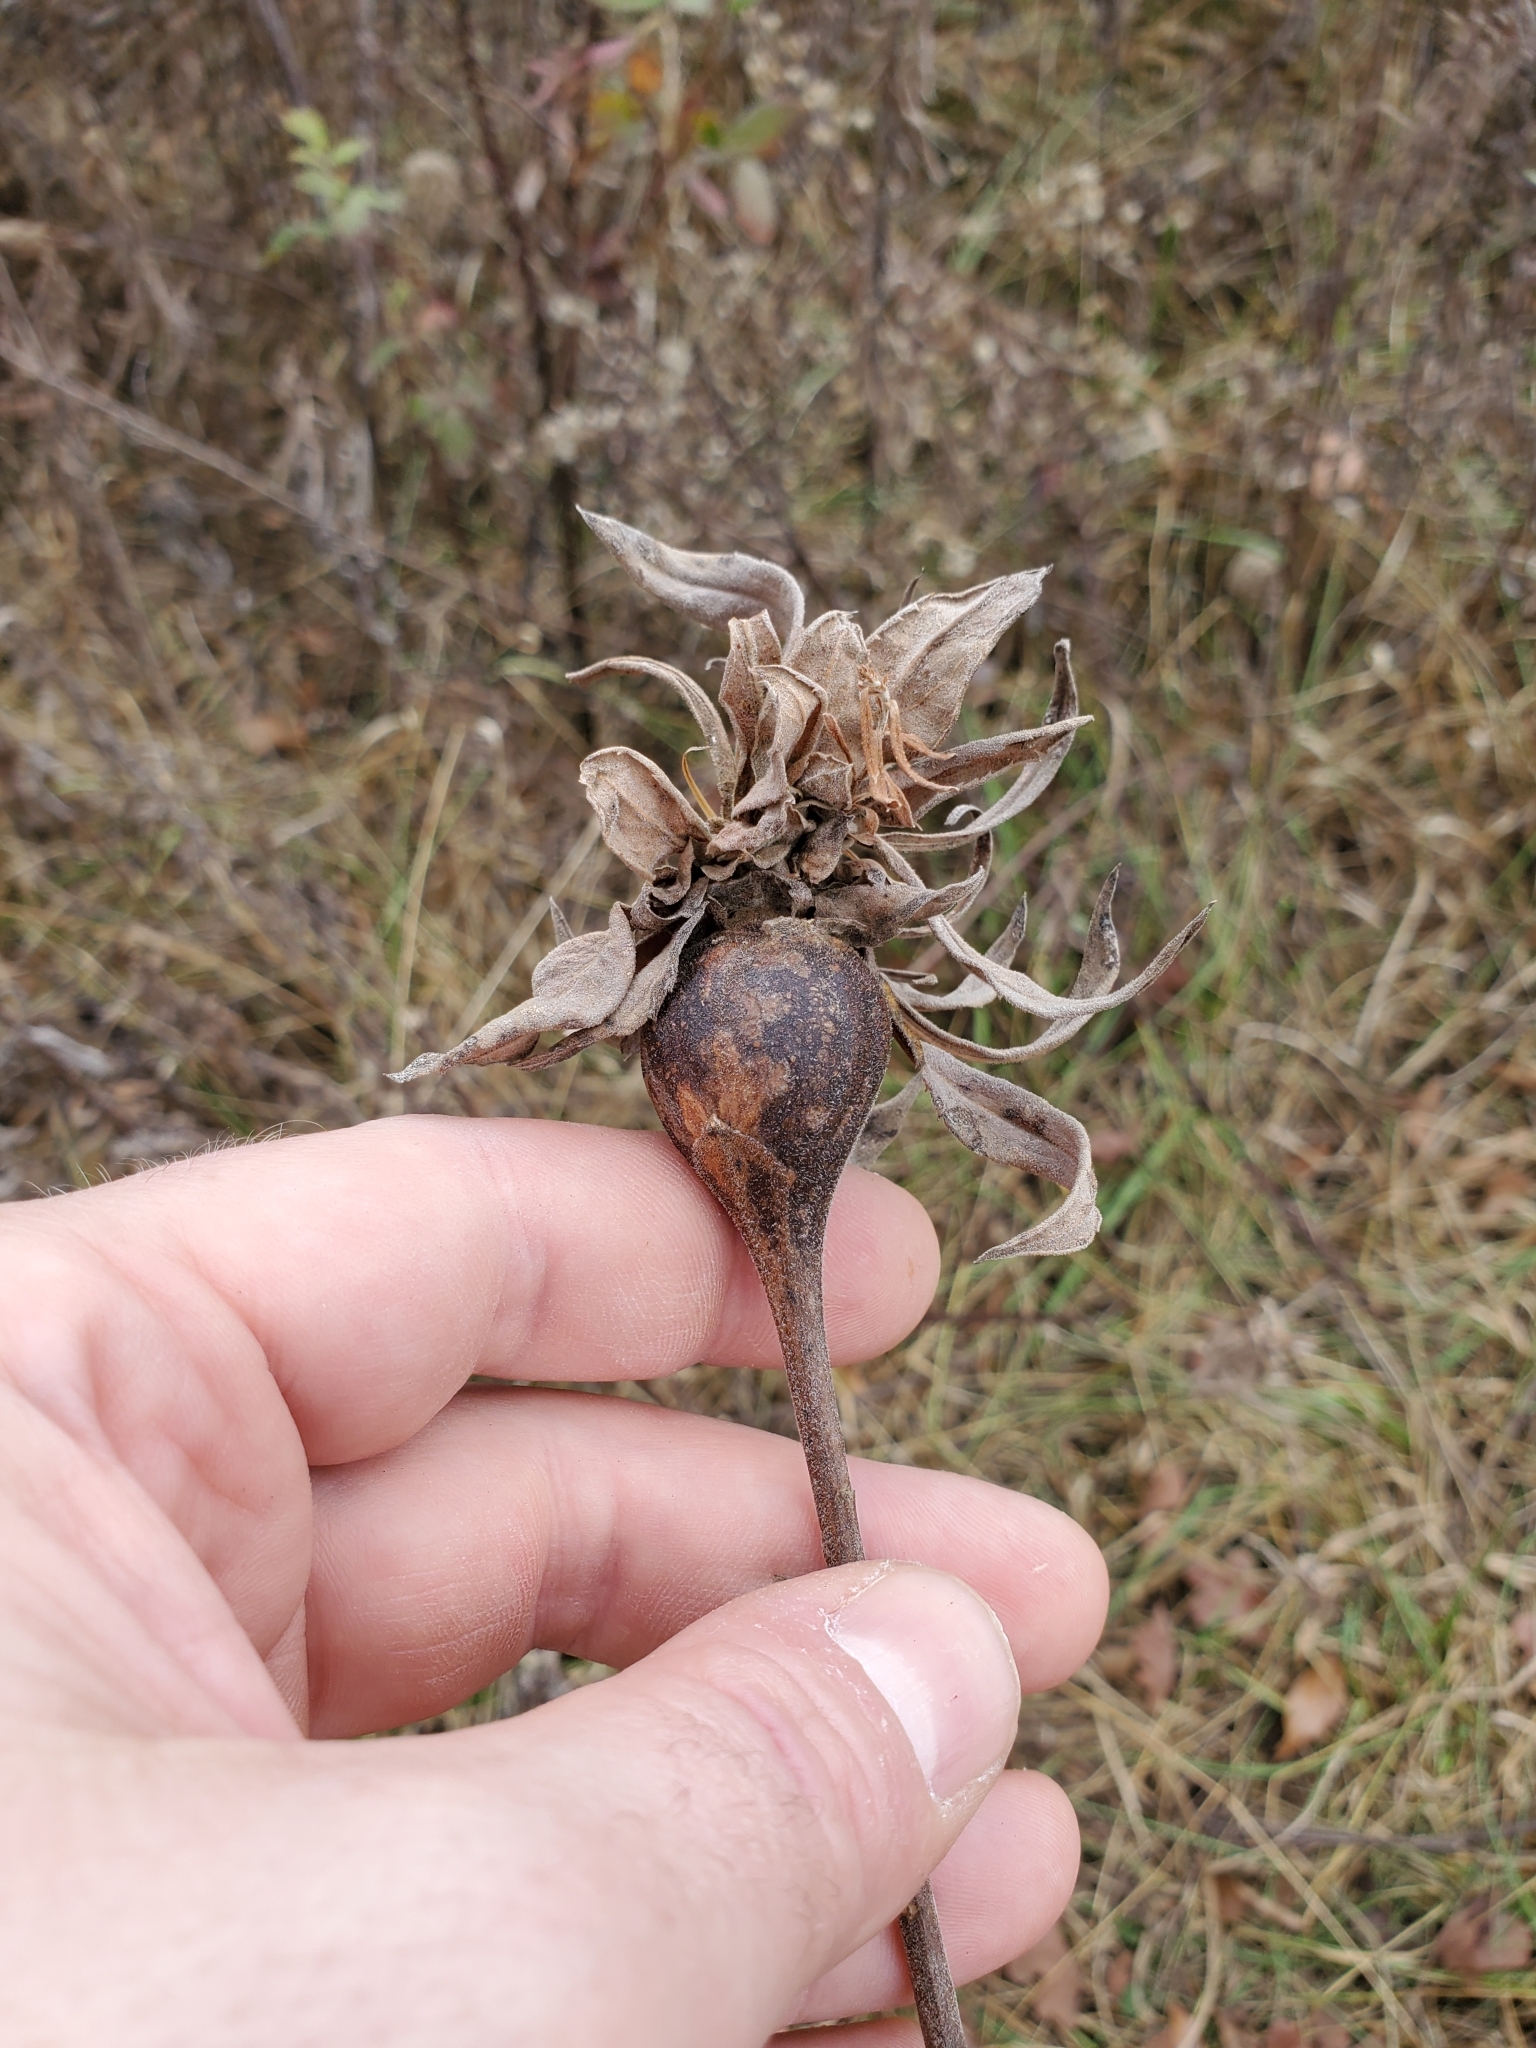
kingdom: Animalia
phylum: Arthropoda
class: Insecta
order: Diptera
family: Tephritidae
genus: Eurosta
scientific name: Eurosta solidaginis
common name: Goldenrod gall fly
